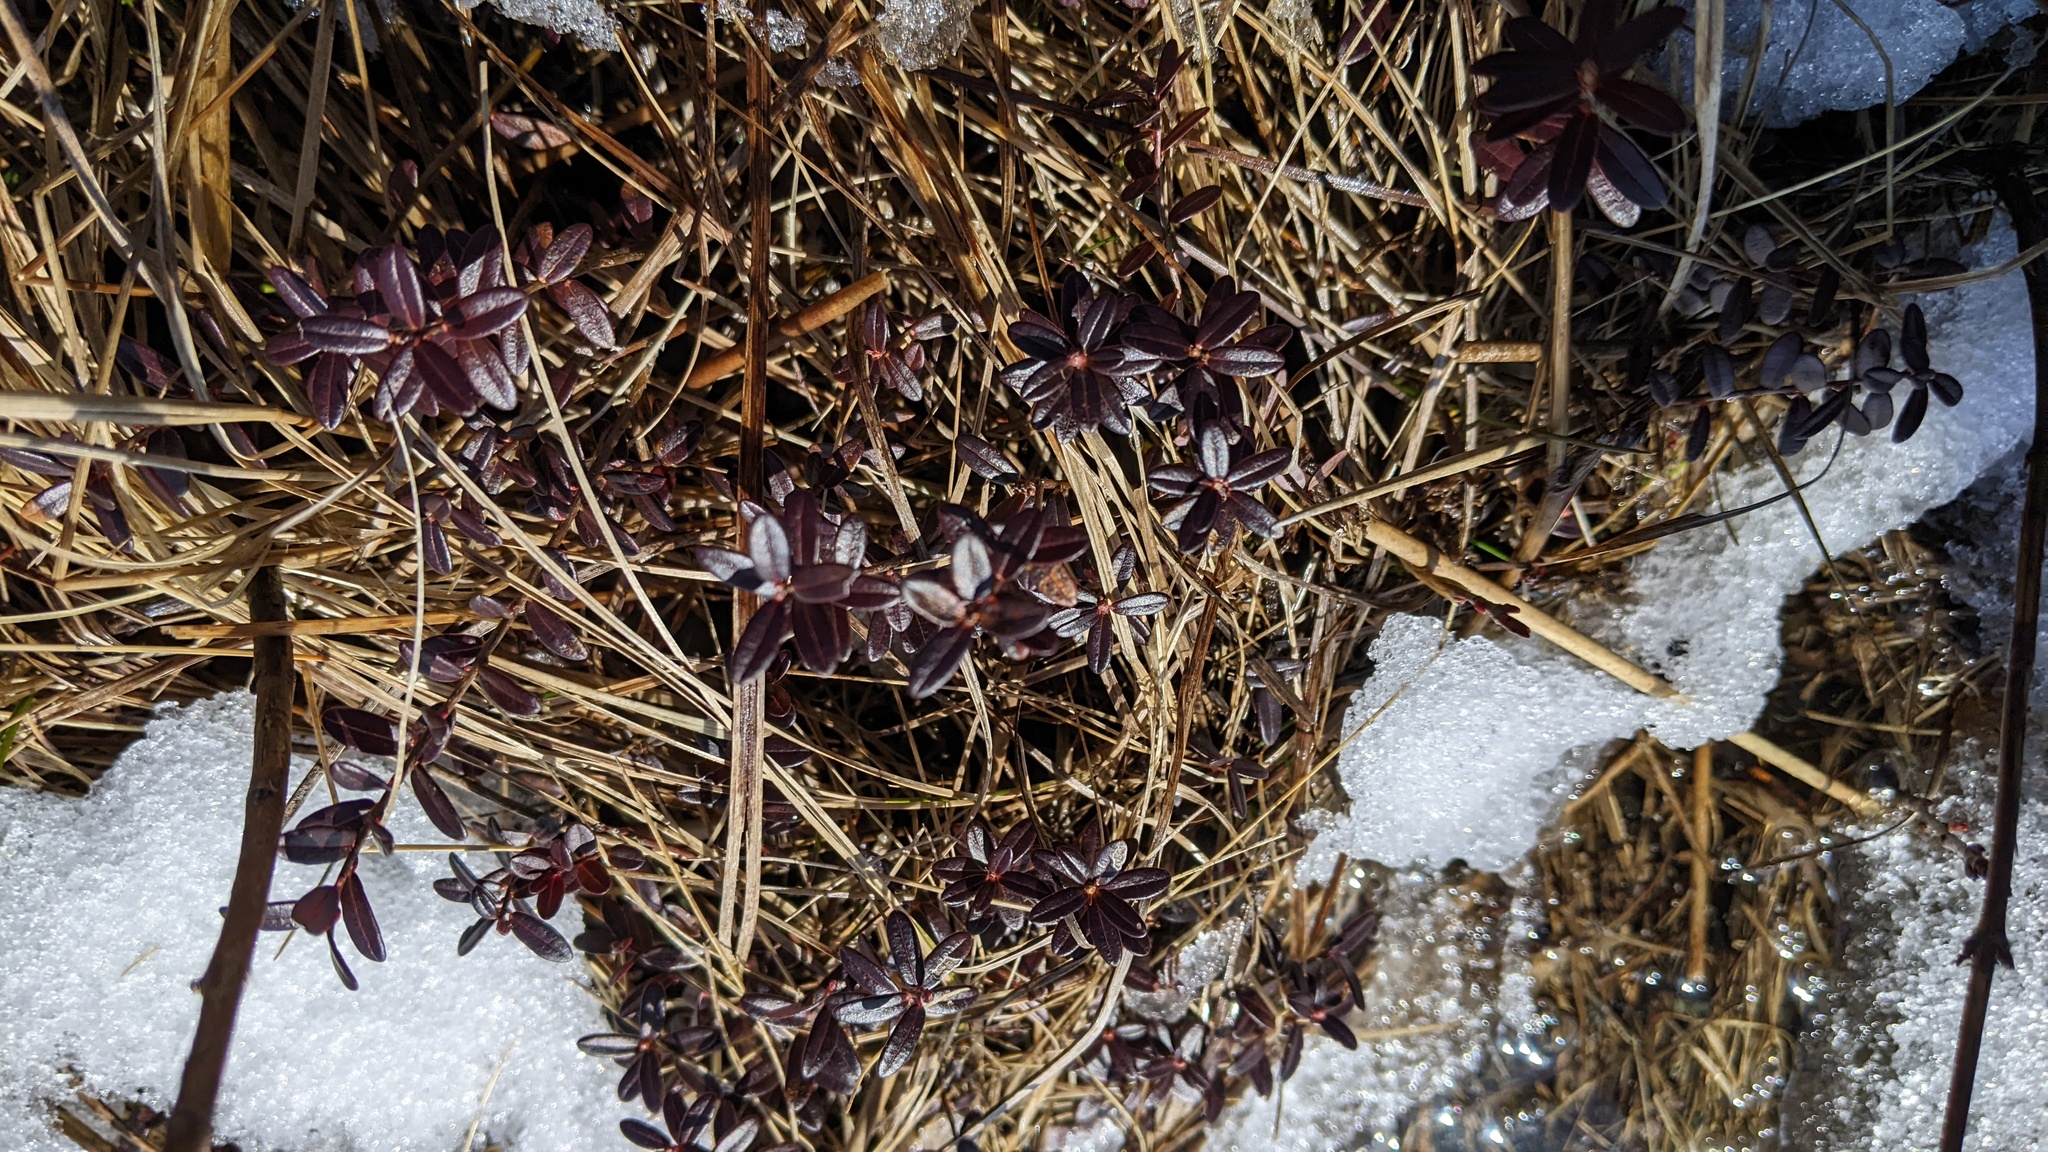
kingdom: Plantae
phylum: Tracheophyta
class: Magnoliopsida
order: Ericales
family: Ericaceae
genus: Vaccinium
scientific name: Vaccinium macrocarpon
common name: American cranberry
